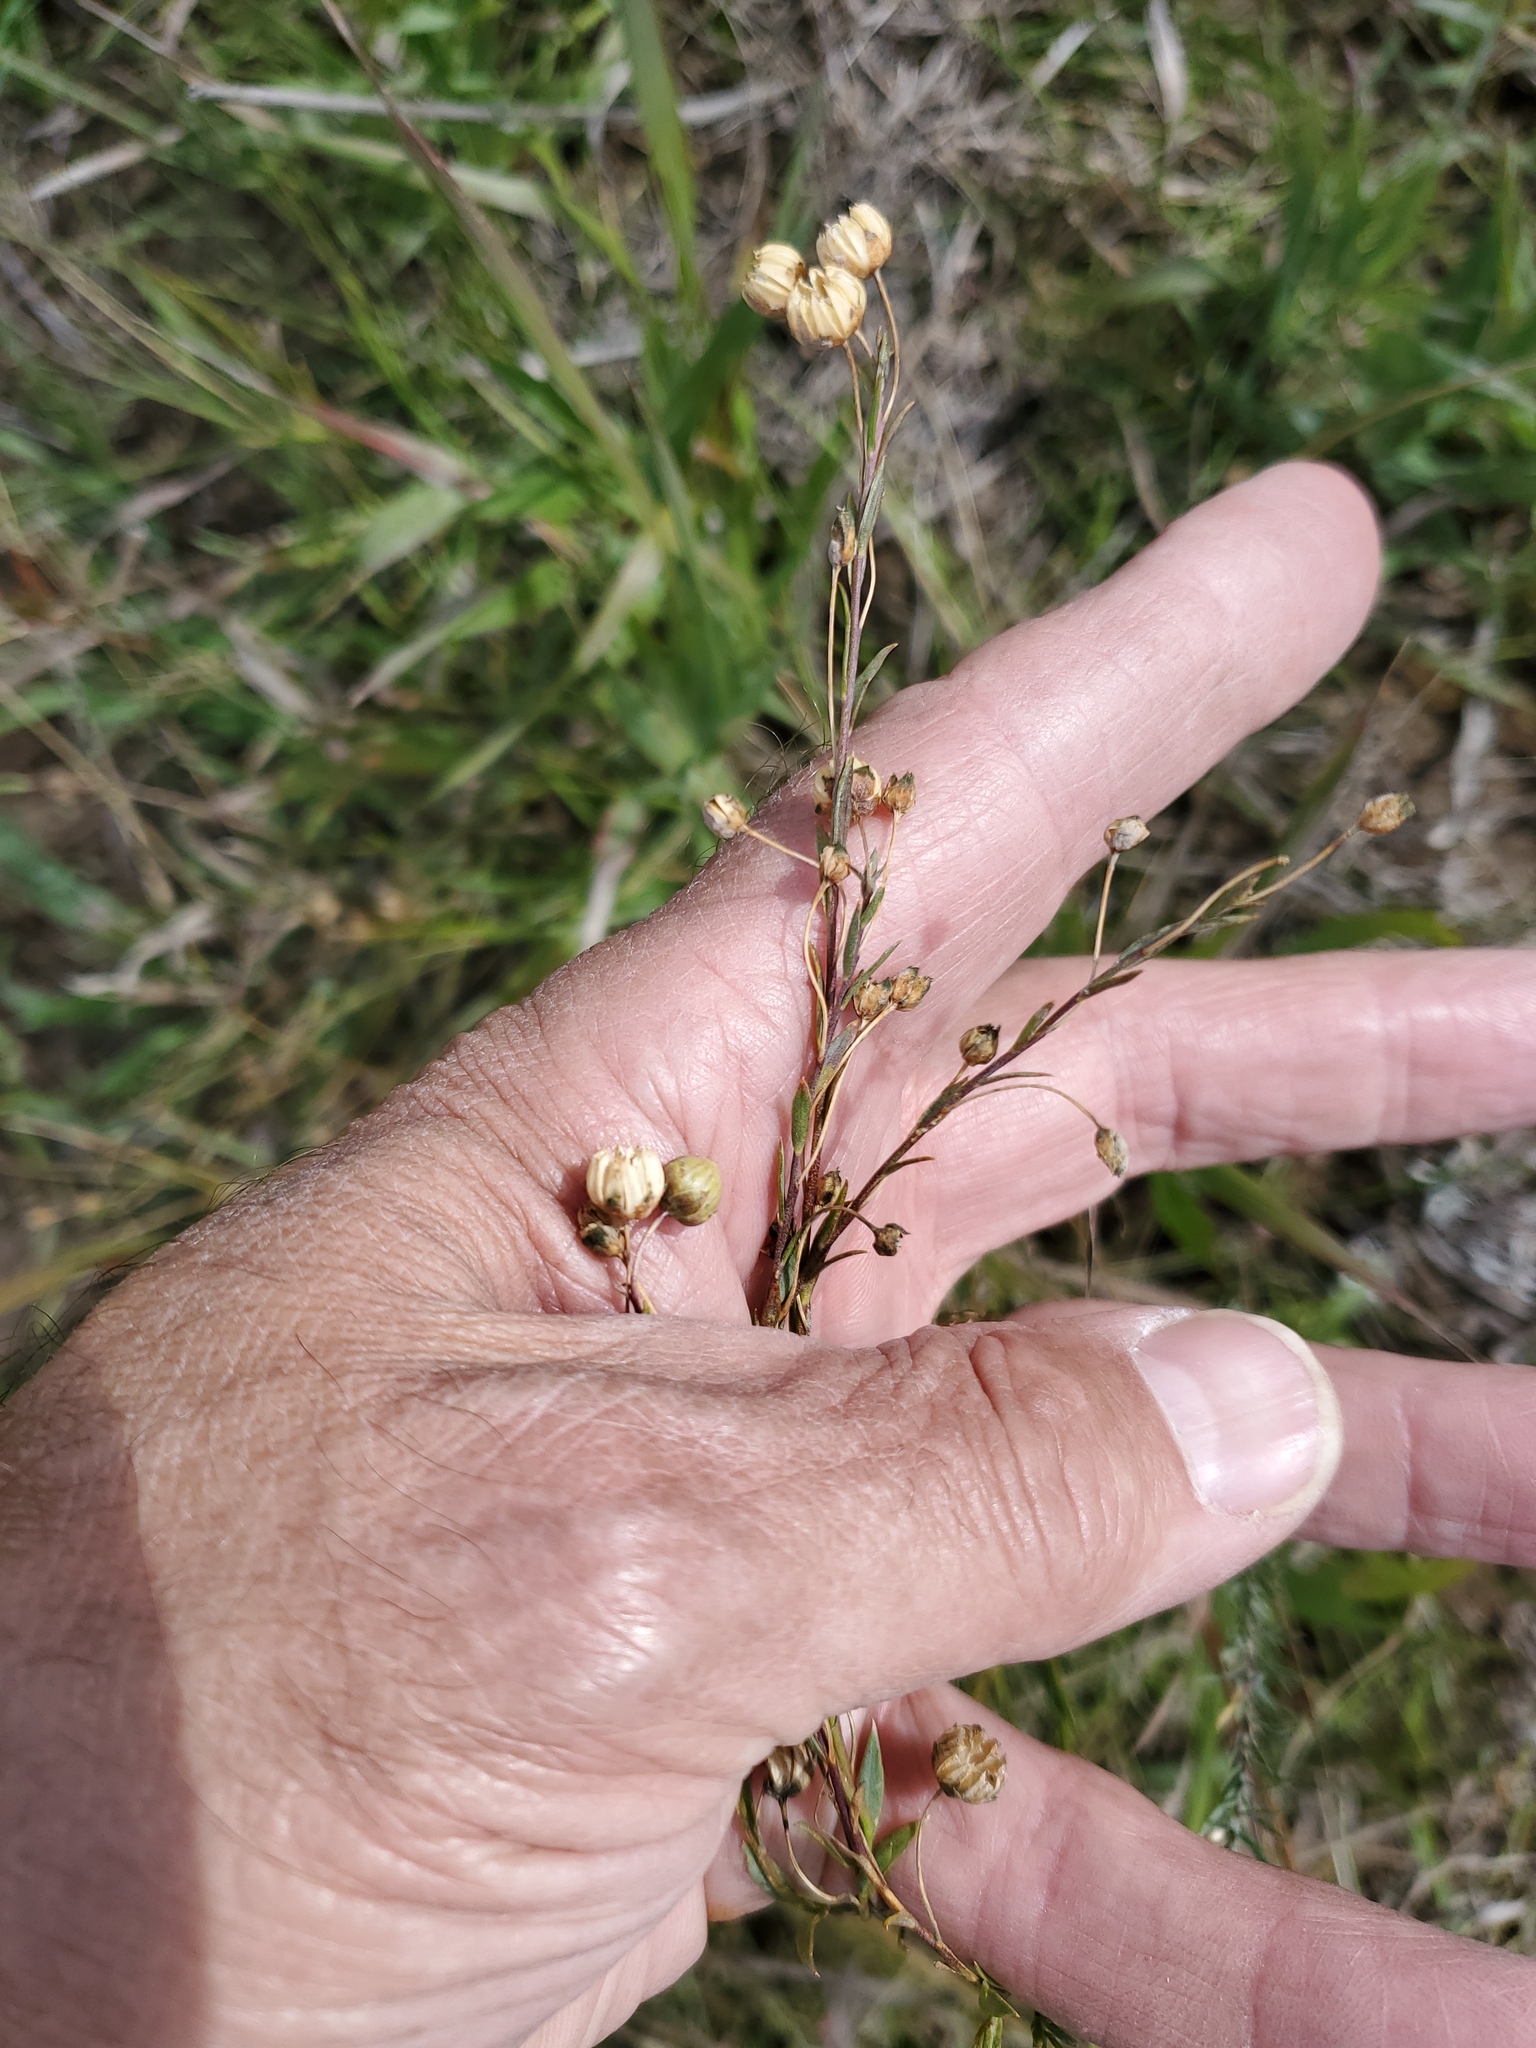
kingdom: Plantae
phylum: Tracheophyta
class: Magnoliopsida
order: Malpighiales
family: Linaceae
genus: Linum
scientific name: Linum lewisii
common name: Prairie flax
